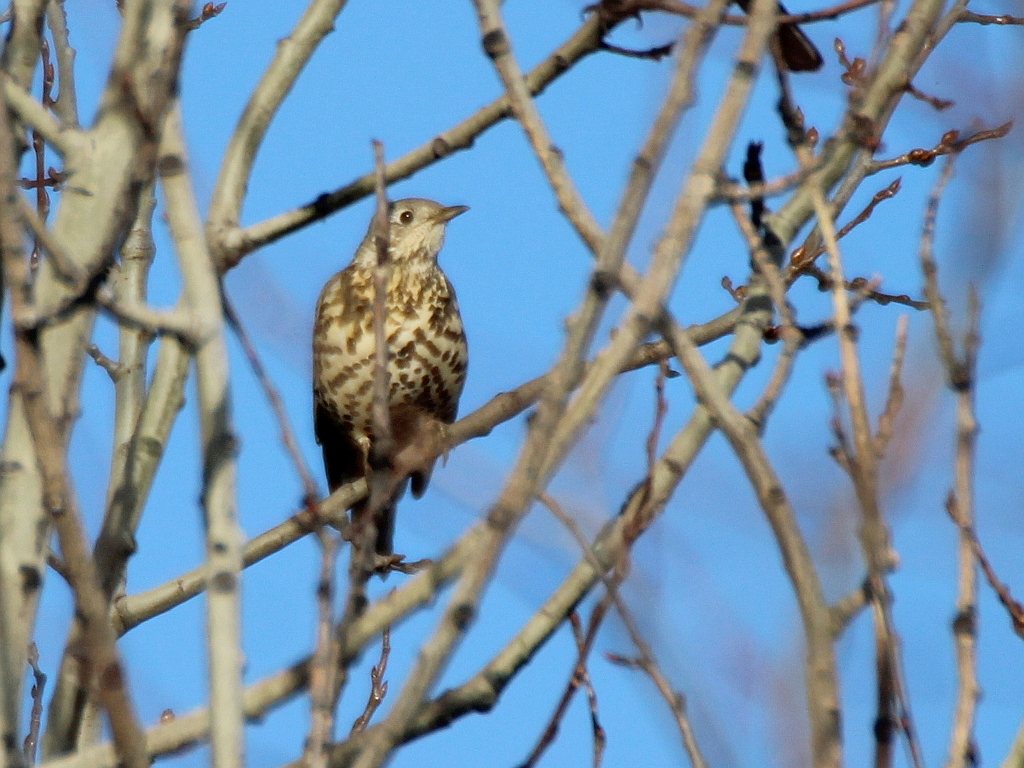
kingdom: Animalia
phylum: Chordata
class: Aves
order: Passeriformes
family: Turdidae
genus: Turdus
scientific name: Turdus viscivorus
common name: Mistle thrush
